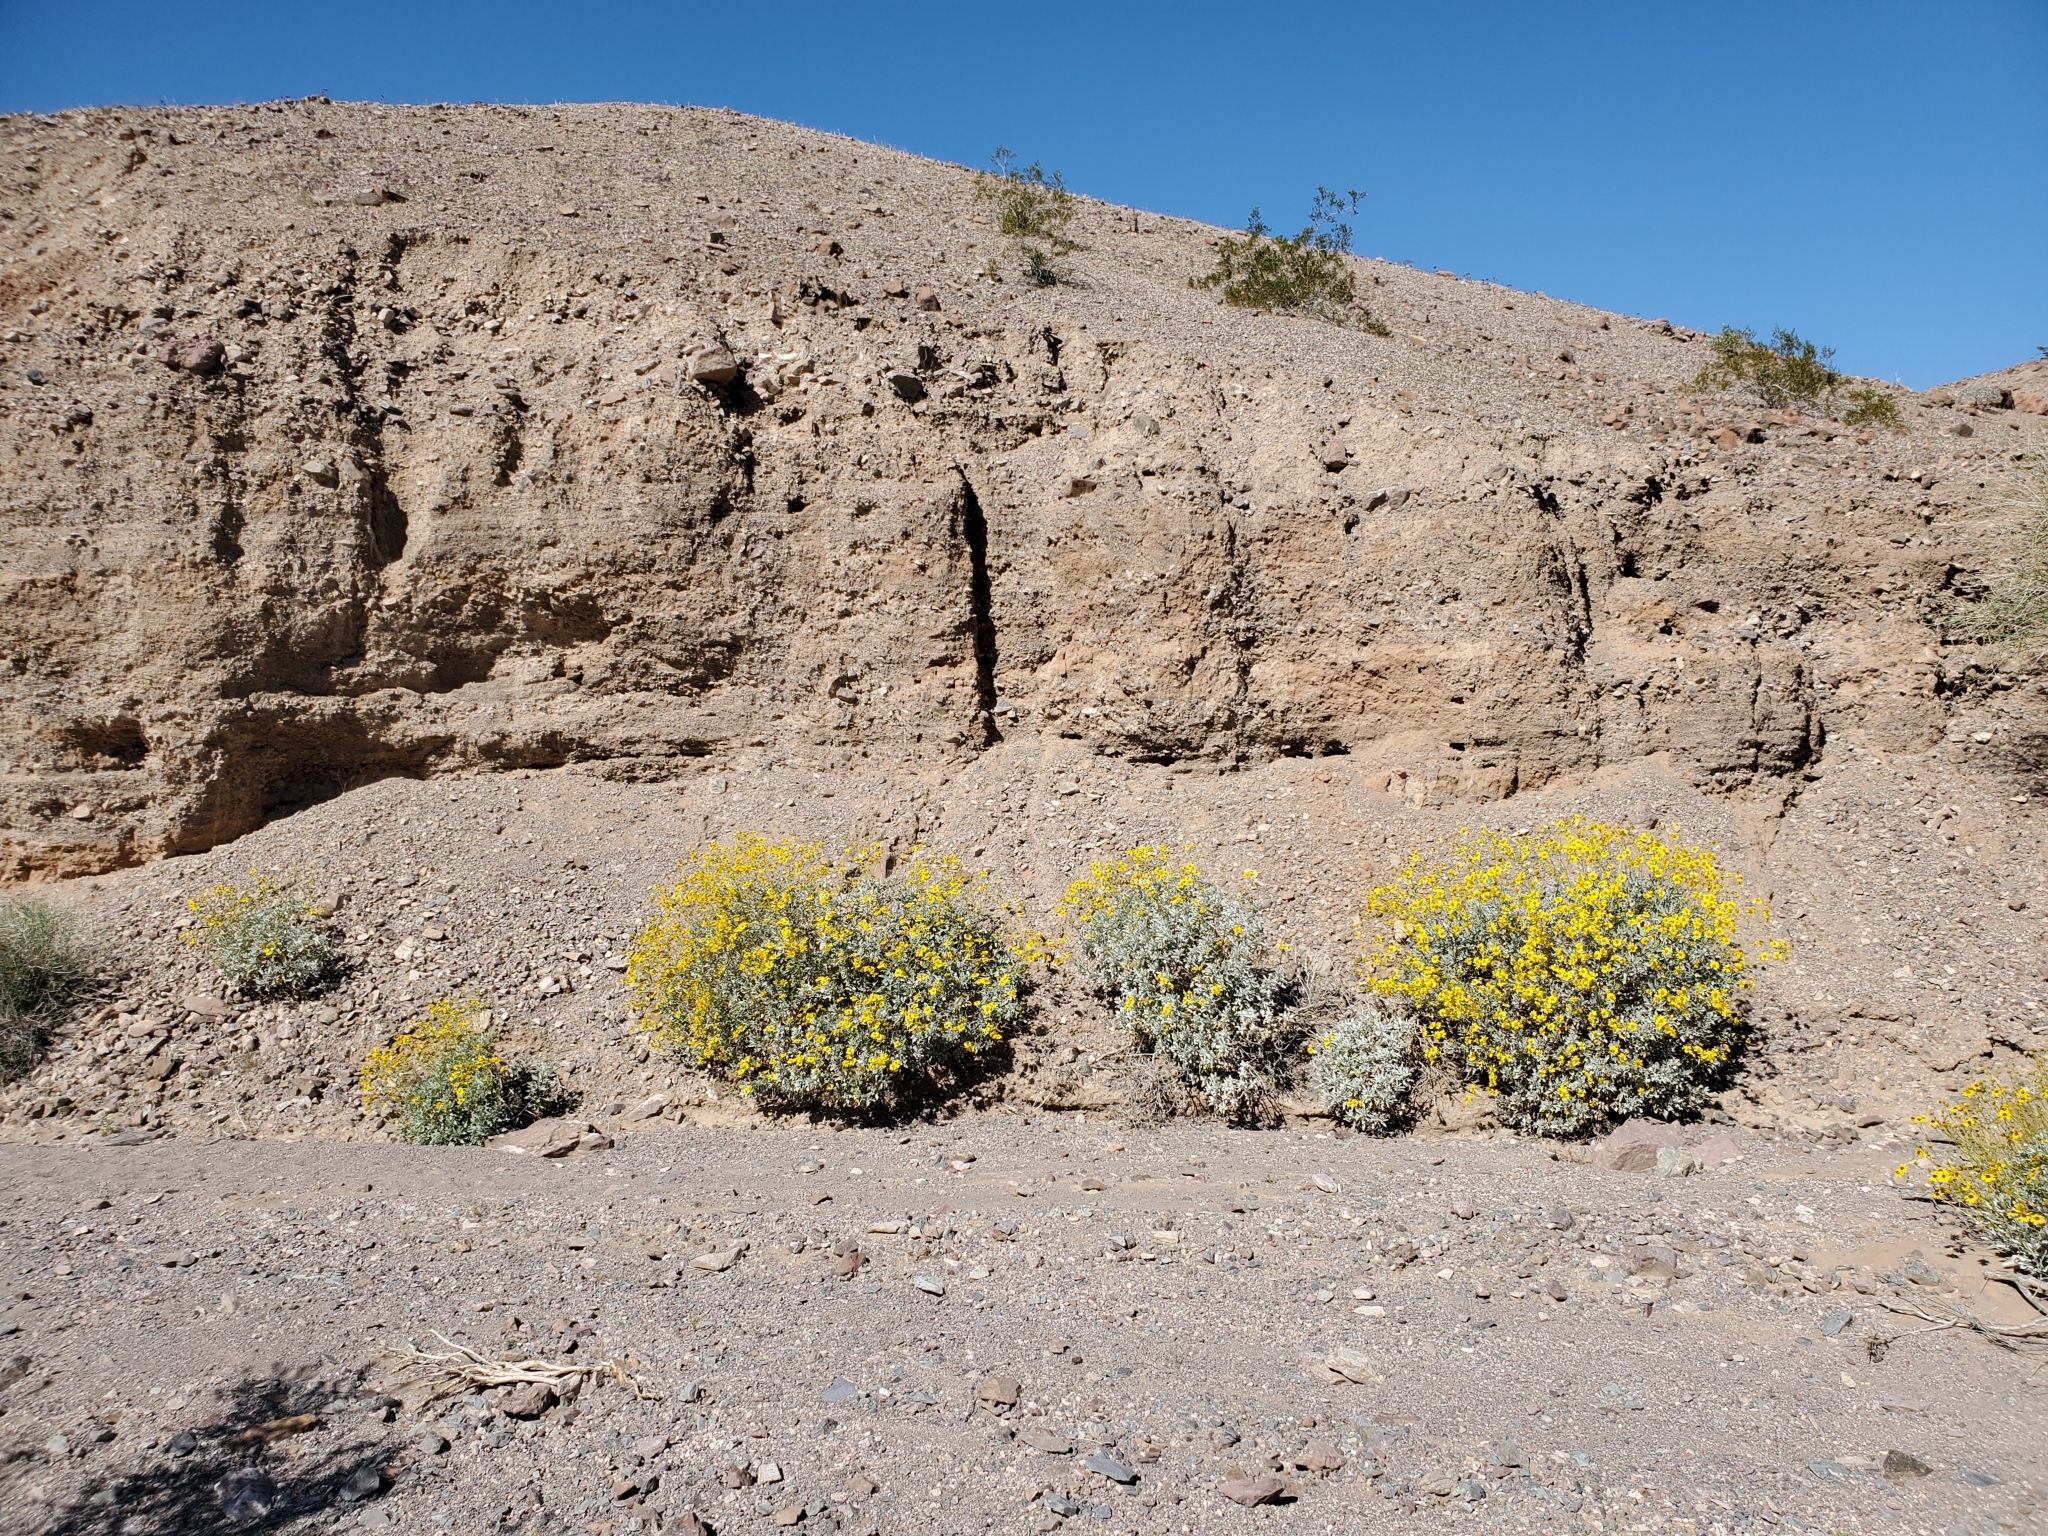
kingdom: Plantae
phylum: Tracheophyta
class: Magnoliopsida
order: Asterales
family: Asteraceae
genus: Encelia
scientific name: Encelia farinosa
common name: Brittlebush
